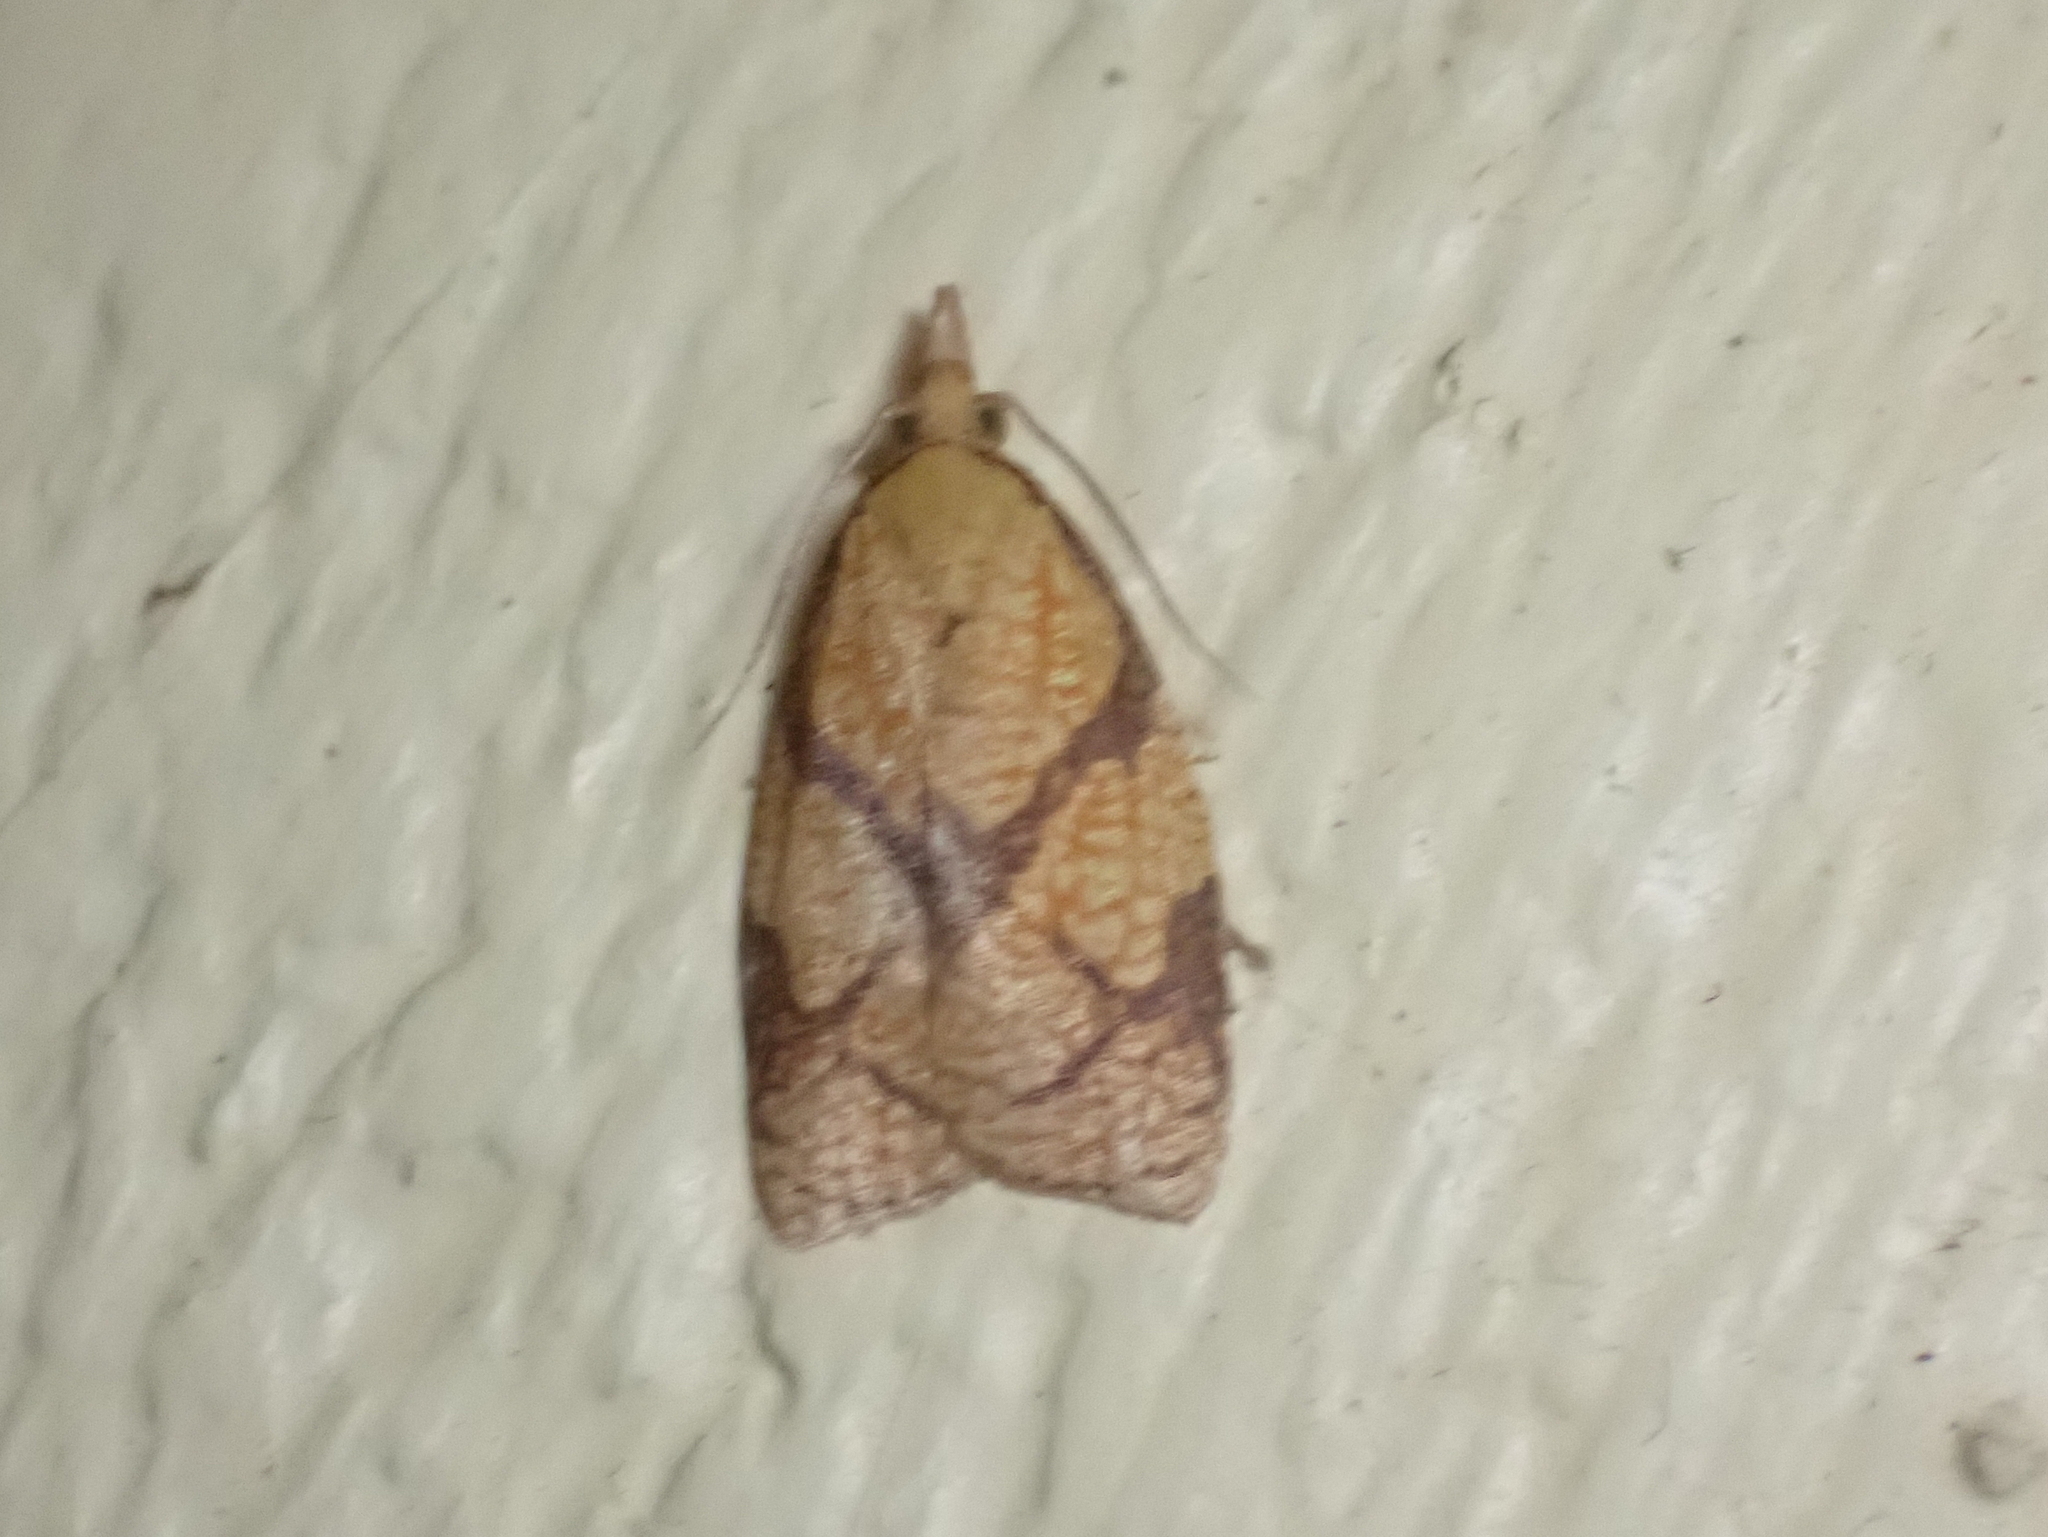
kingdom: Animalia
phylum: Arthropoda
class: Insecta
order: Lepidoptera
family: Tortricidae
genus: Cenopis
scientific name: Cenopis reticulatana
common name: Reticulated fruitworm moth
